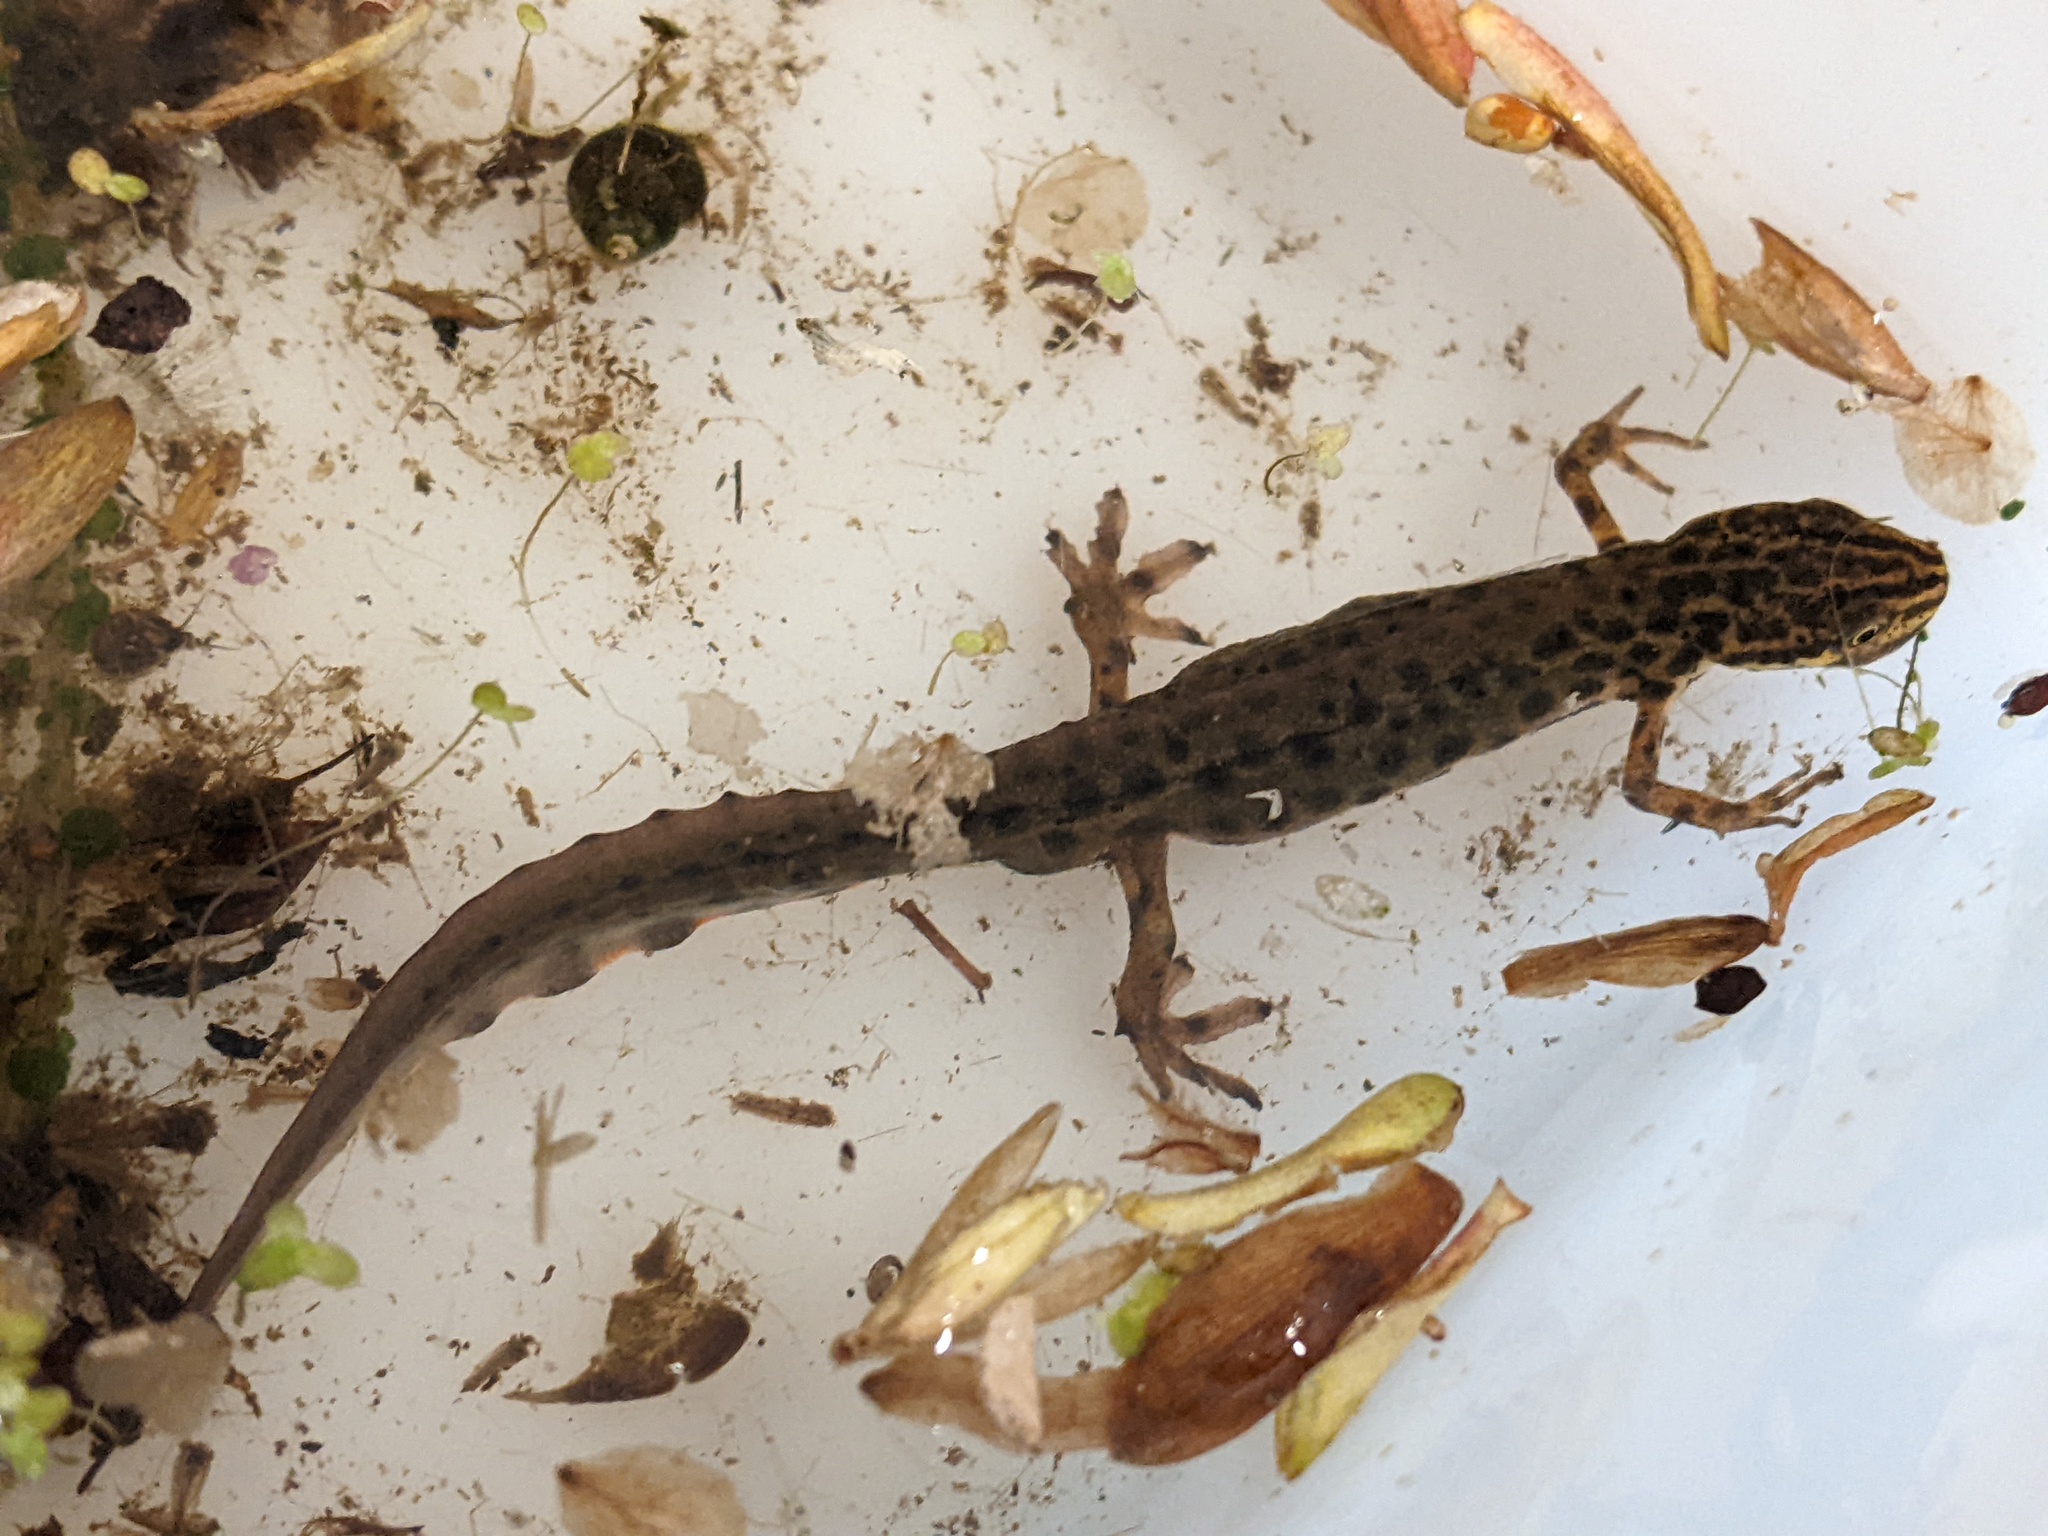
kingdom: Animalia
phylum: Chordata
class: Amphibia
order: Caudata
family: Salamandridae
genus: Lissotriton
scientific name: Lissotriton vulgaris
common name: Smooth newt
